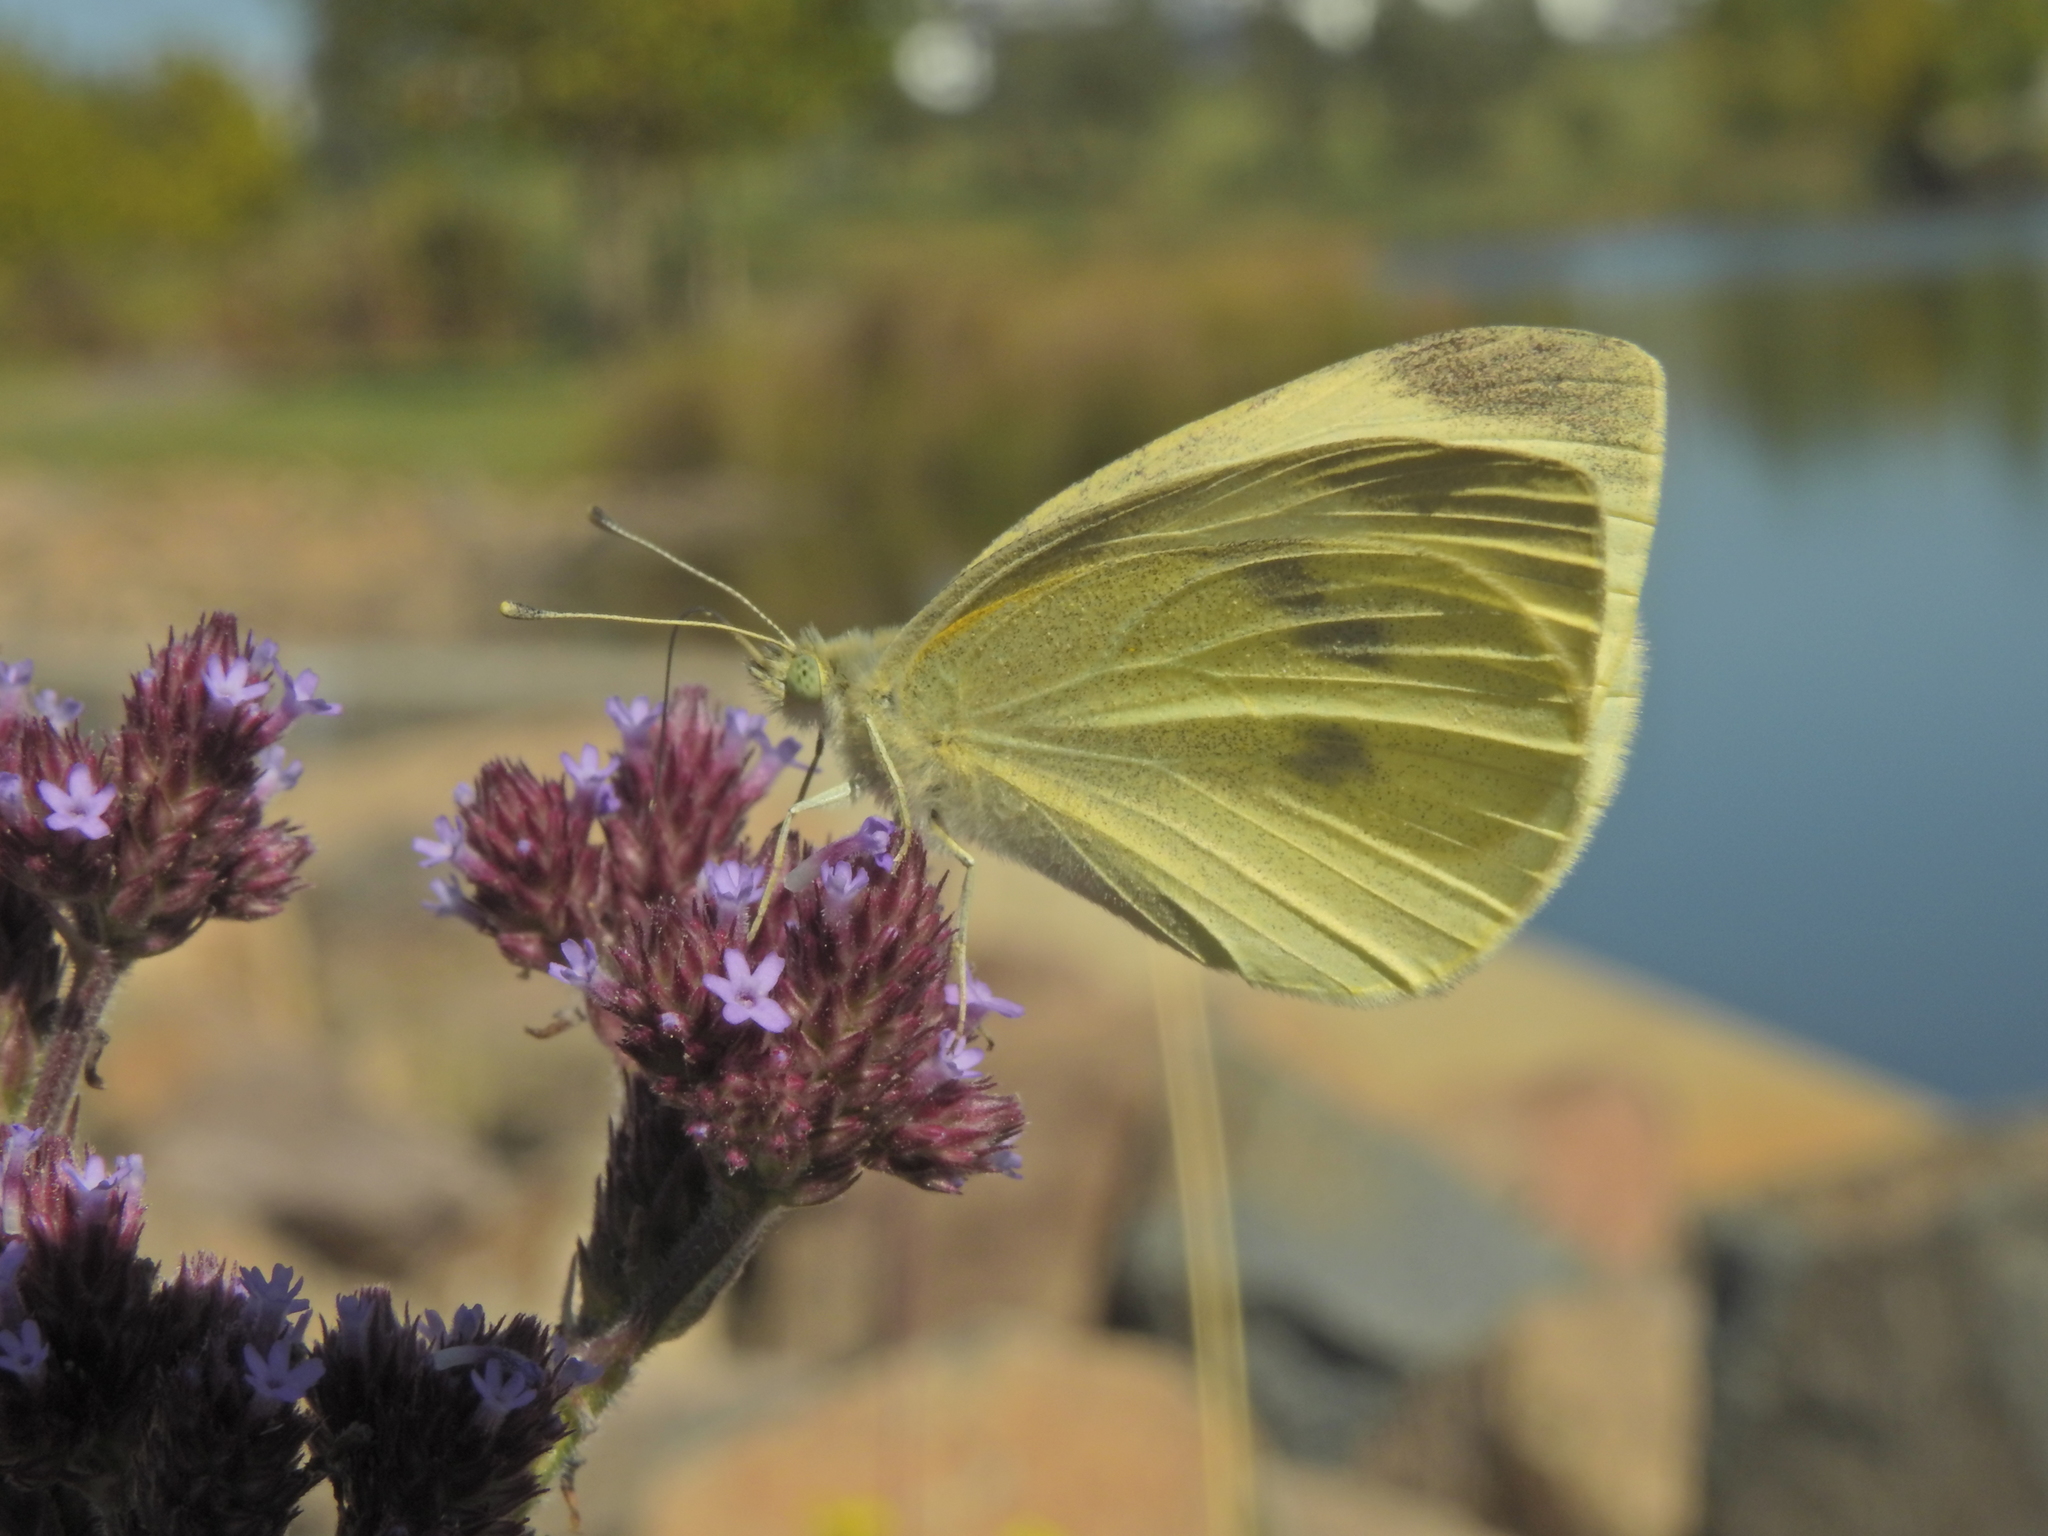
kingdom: Animalia
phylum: Arthropoda
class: Insecta
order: Lepidoptera
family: Pieridae
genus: Pieris
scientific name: Pieris rapae
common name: Small white
